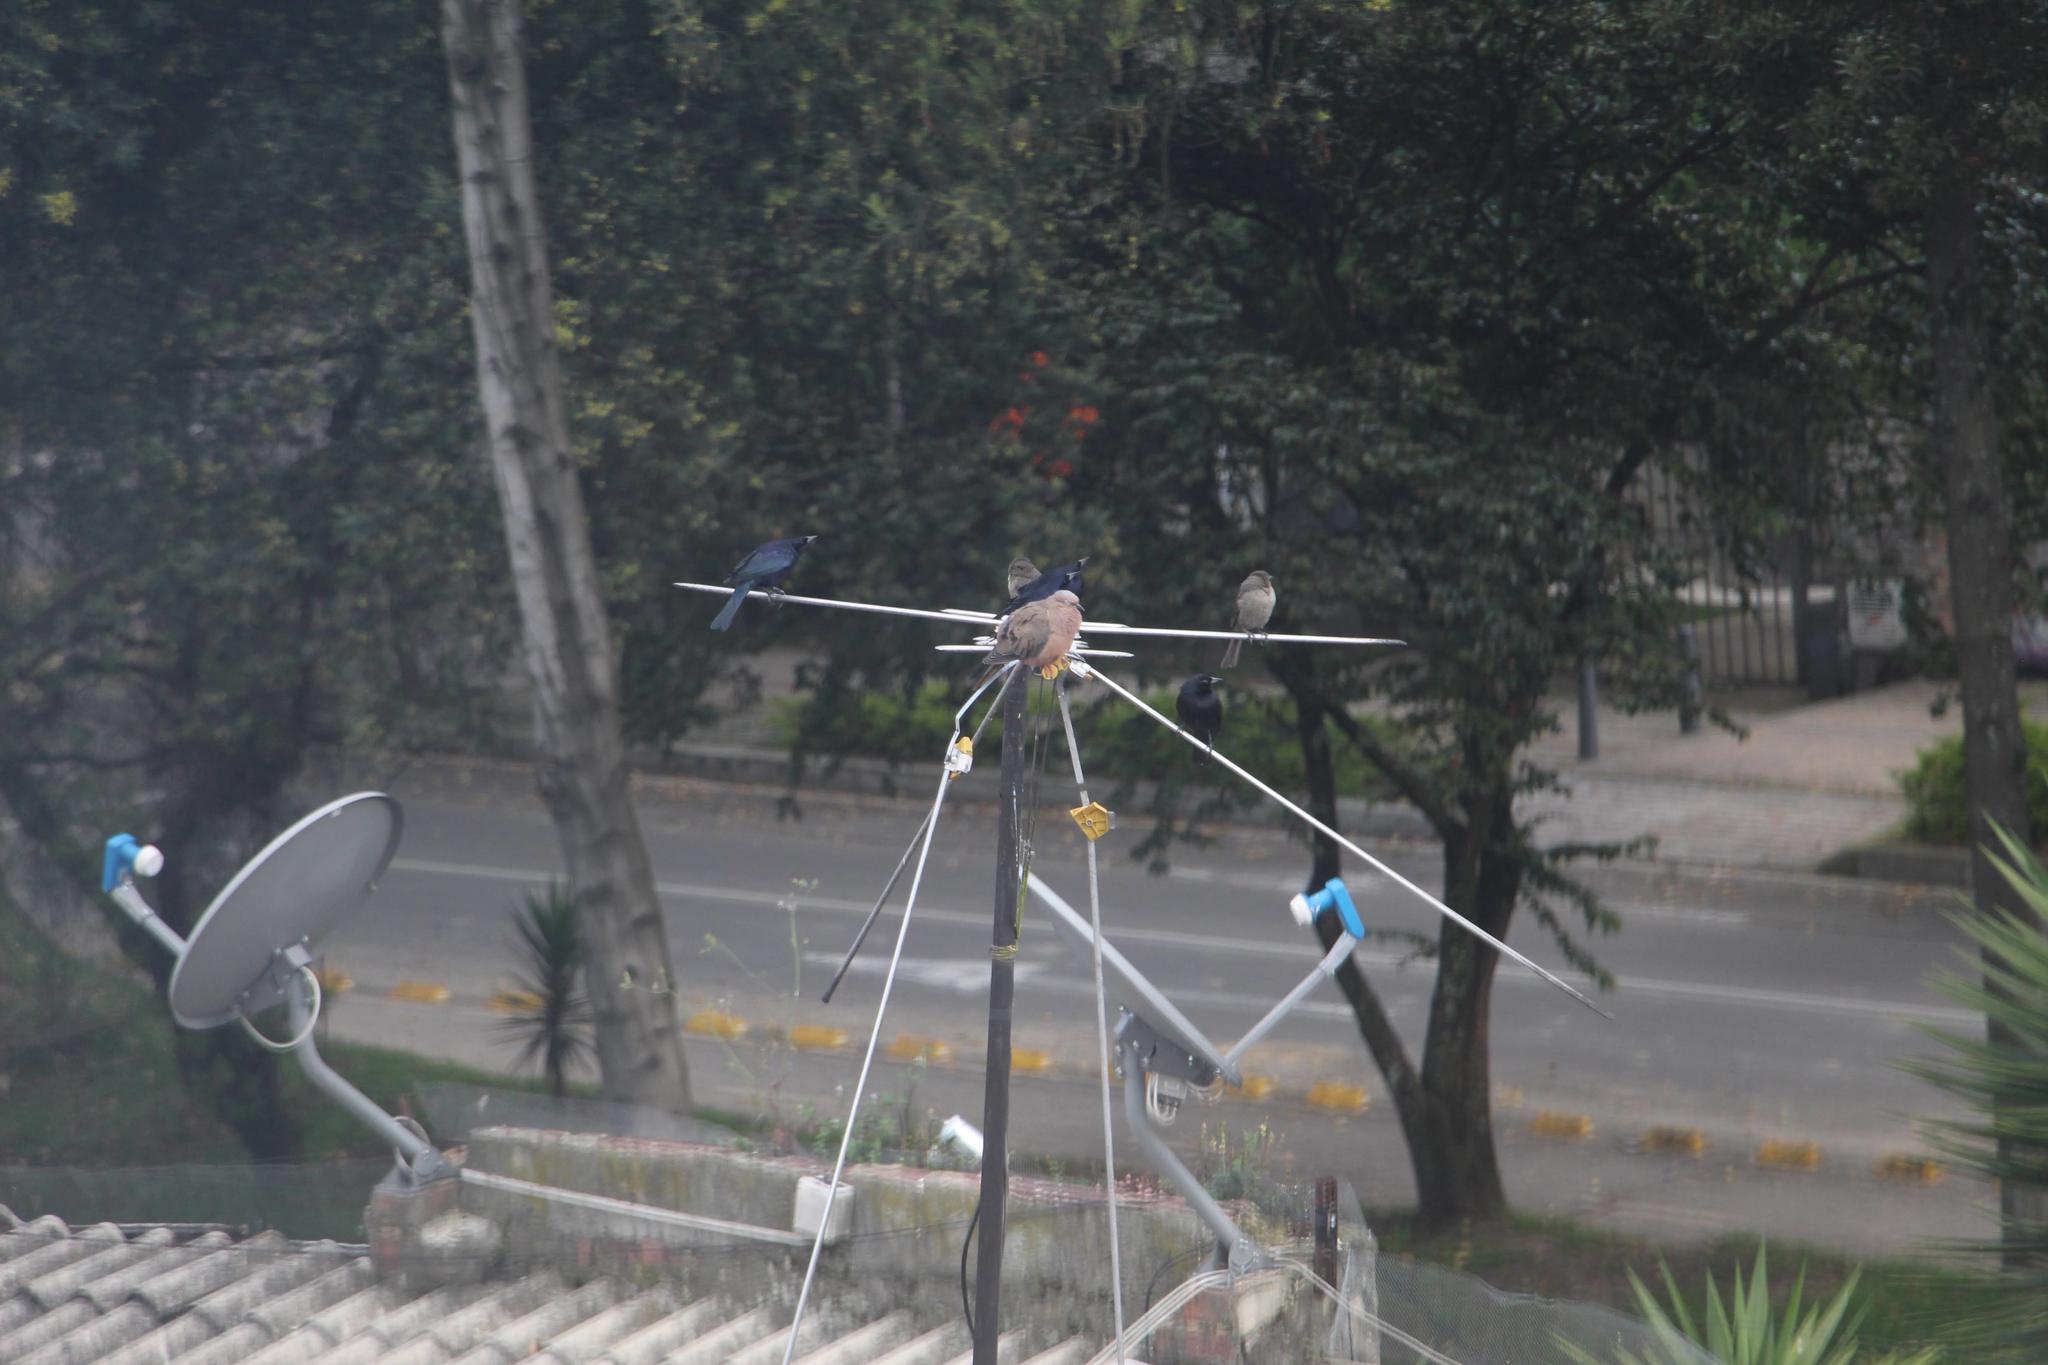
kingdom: Animalia
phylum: Chordata
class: Aves
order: Passeriformes
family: Icteridae
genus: Molothrus
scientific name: Molothrus bonariensis
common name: Shiny cowbird
